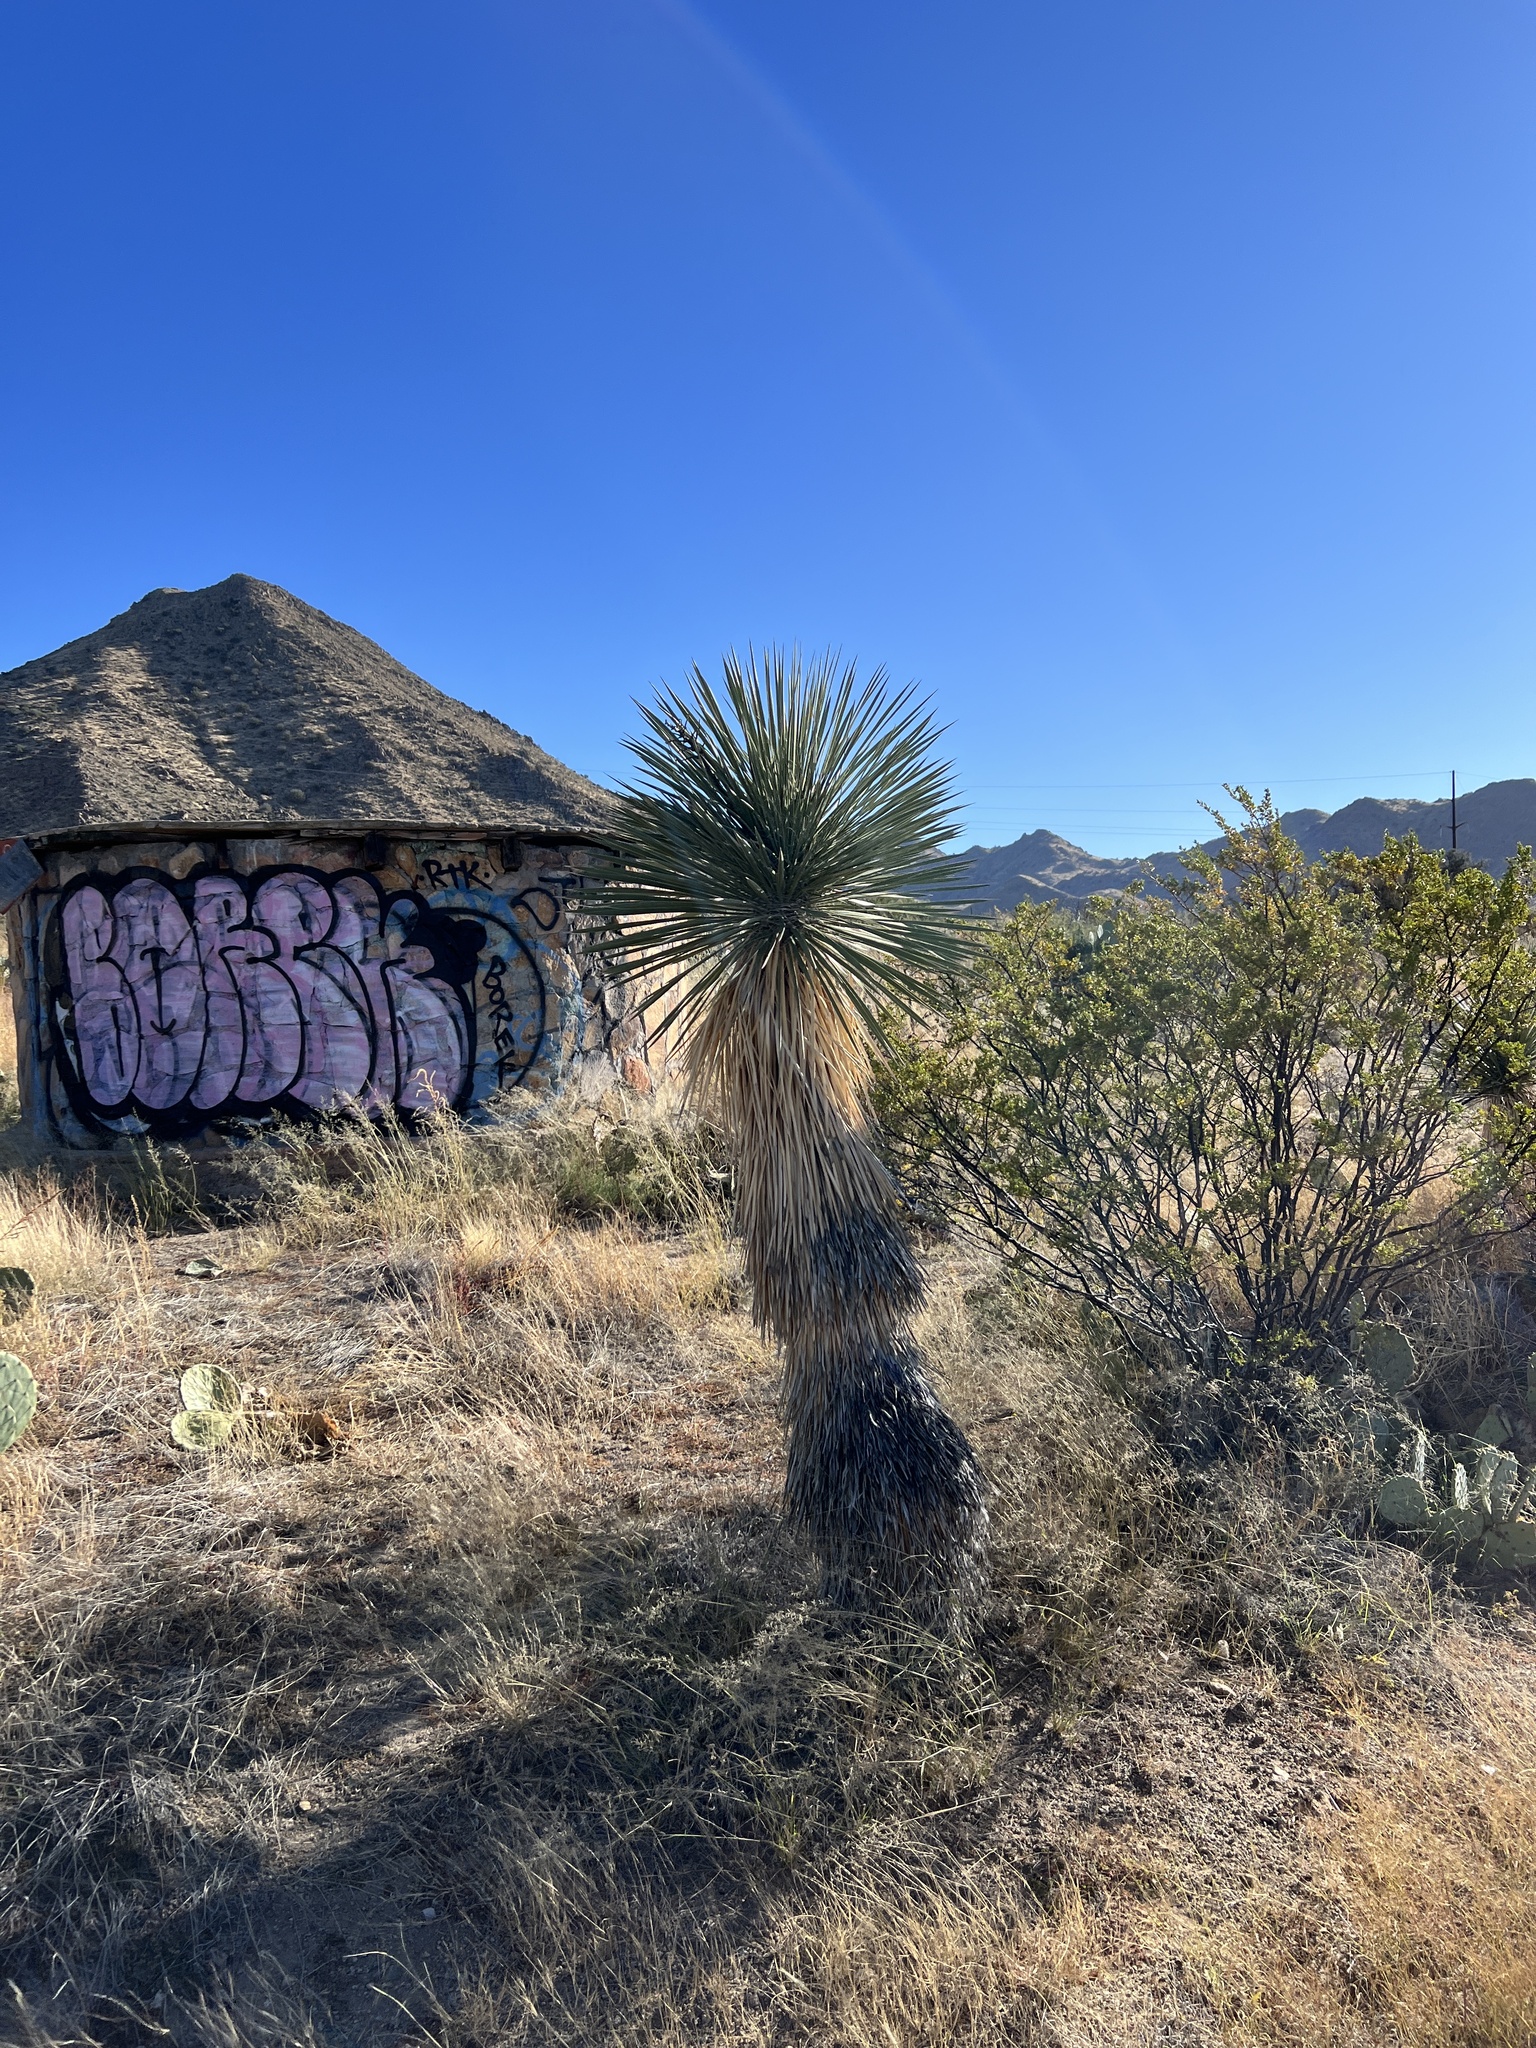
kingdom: Plantae
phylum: Tracheophyta
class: Liliopsida
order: Asparagales
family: Asparagaceae
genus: Yucca
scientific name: Yucca elata
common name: Palmella
